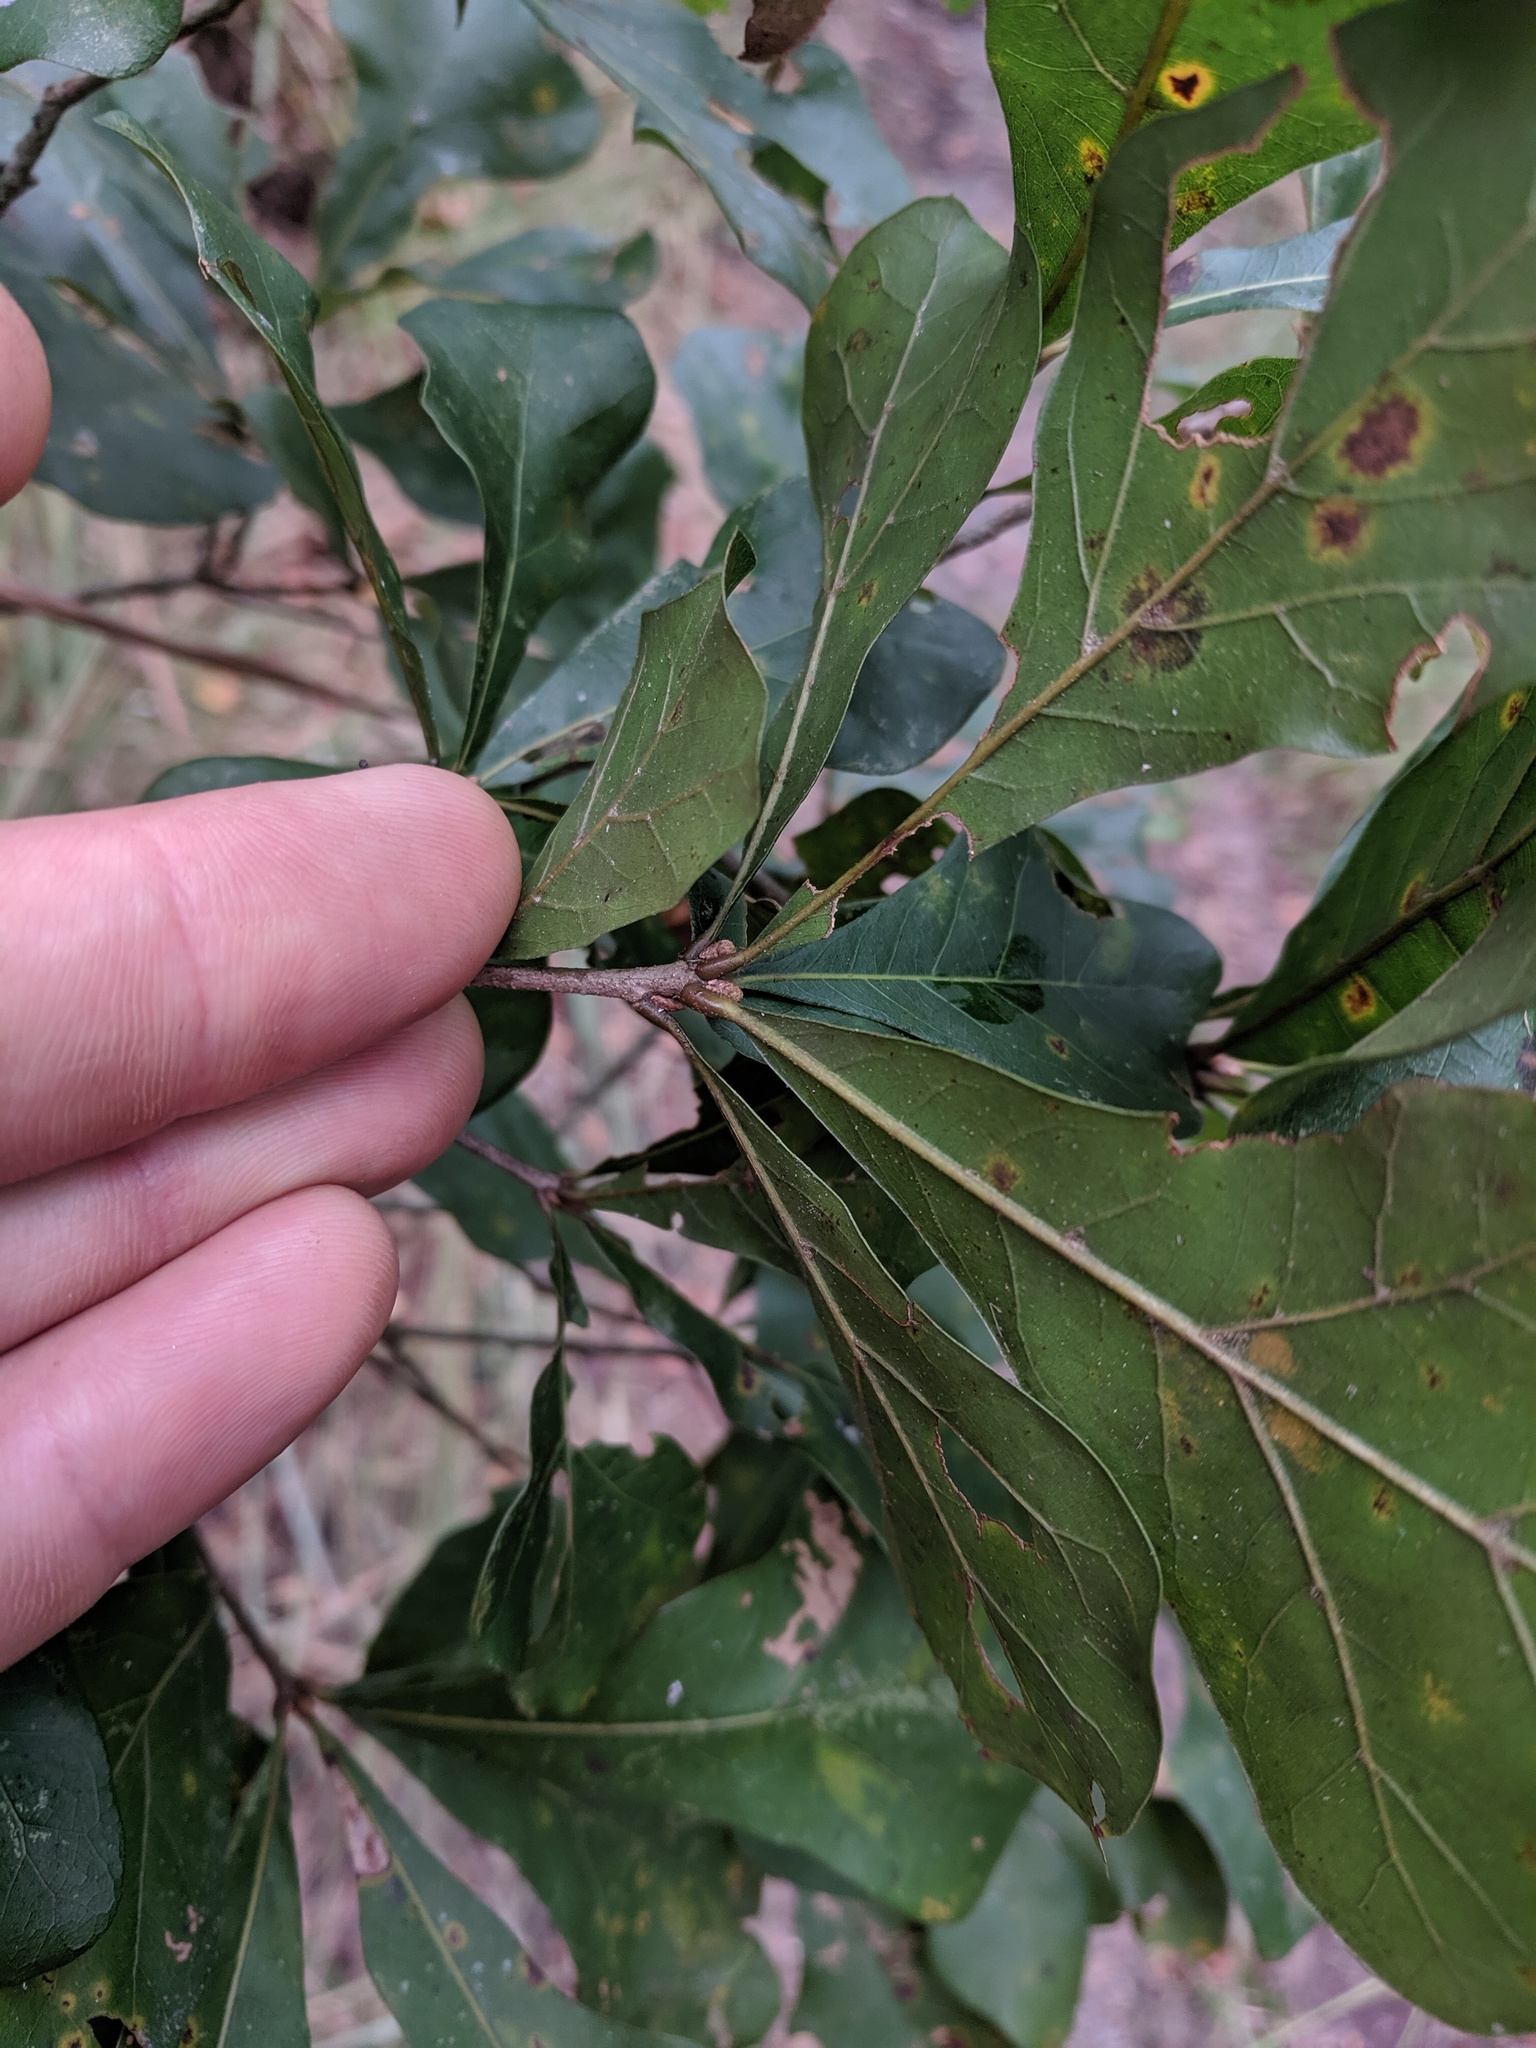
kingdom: Plantae
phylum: Tracheophyta
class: Magnoliopsida
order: Fagales
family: Fagaceae
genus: Quercus
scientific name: Quercus nigra
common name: Water oak
